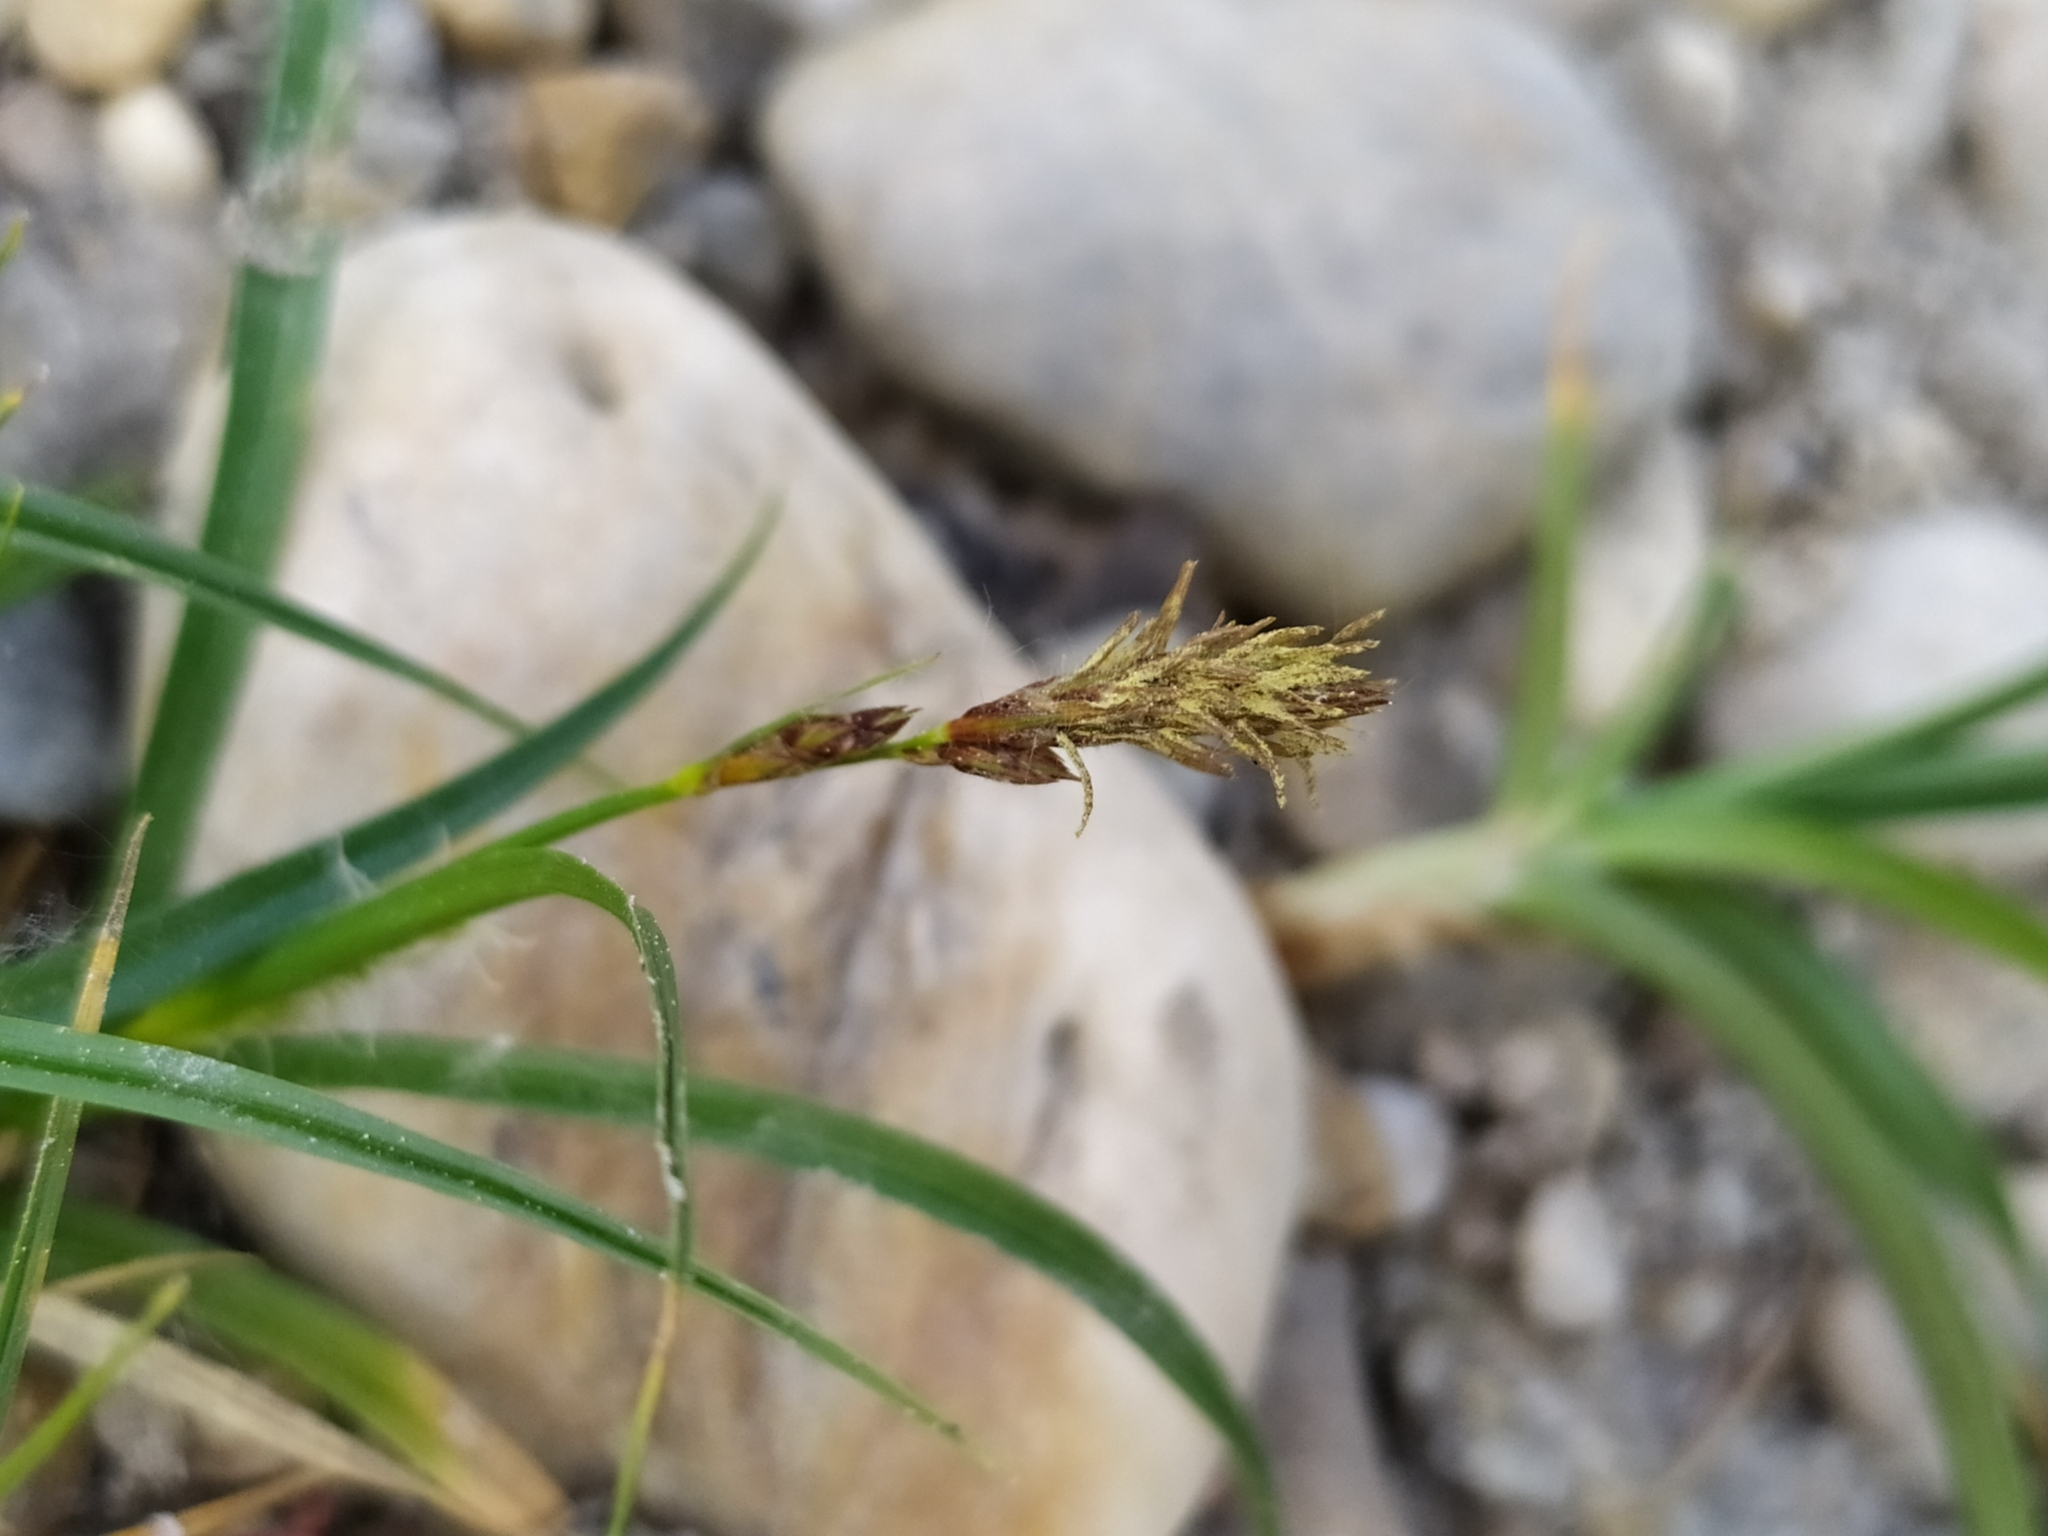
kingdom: Plantae
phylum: Tracheophyta
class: Liliopsida
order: Poales
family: Cyperaceae
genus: Carex
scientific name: Carex hirta
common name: Hairy sedge
